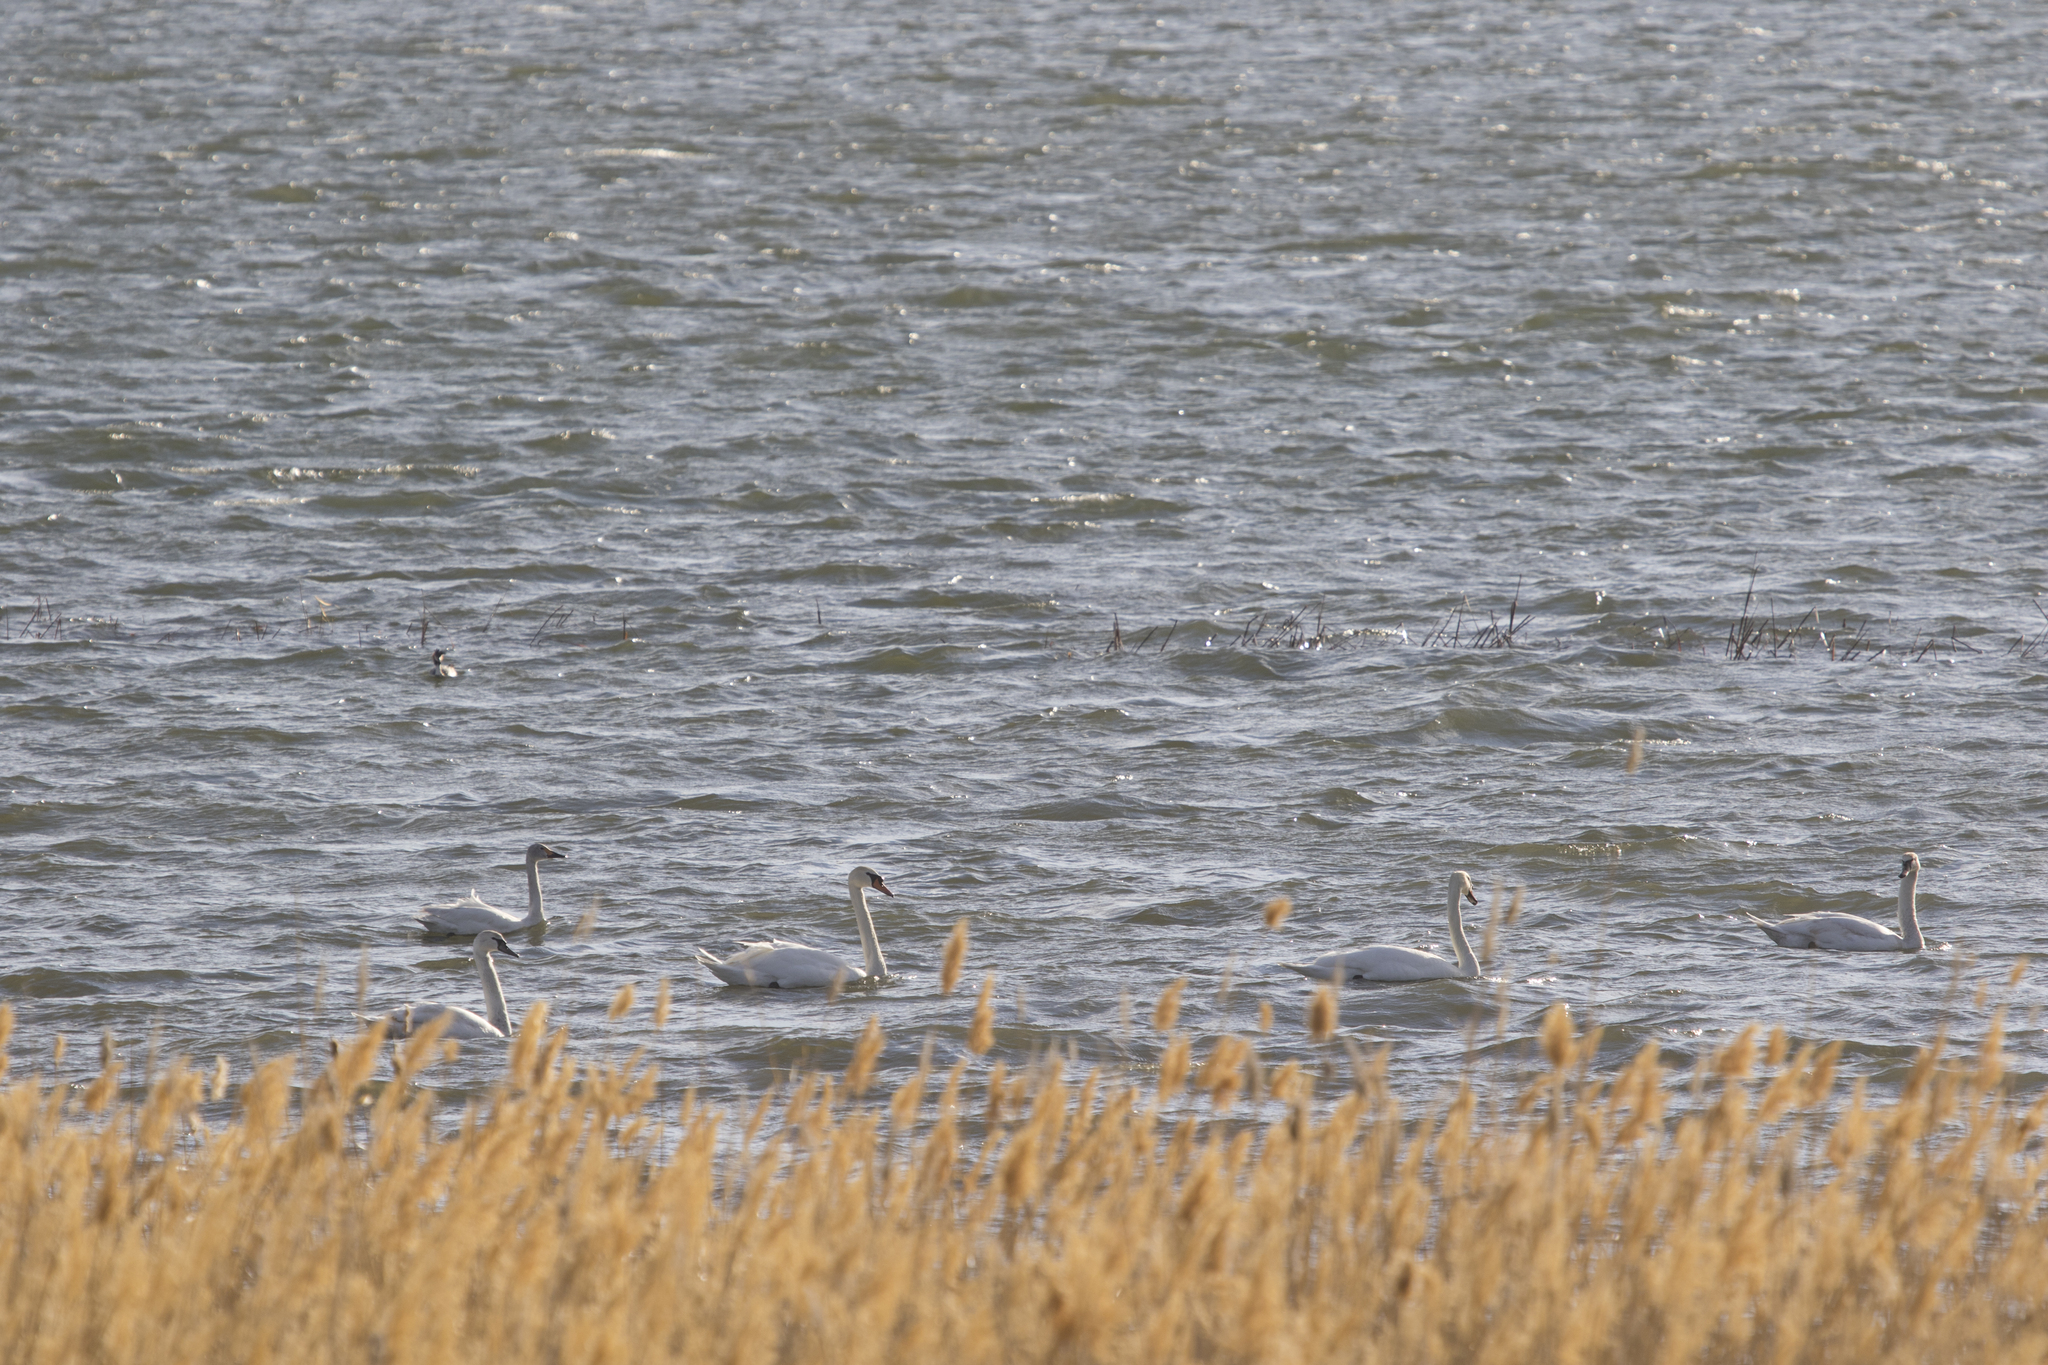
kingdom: Animalia
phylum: Chordata
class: Aves
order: Anseriformes
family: Anatidae
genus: Cygnus
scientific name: Cygnus olor
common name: Mute swan
